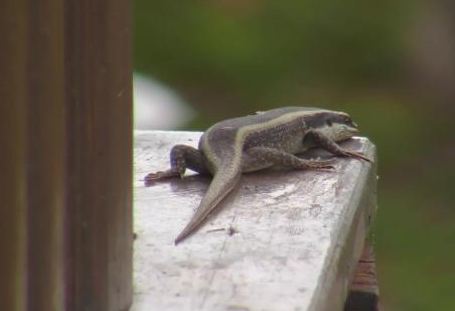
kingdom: Animalia
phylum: Chordata
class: Squamata
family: Scincidae
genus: Trachylepis
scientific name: Trachylepis striata
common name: African striped mabuya
